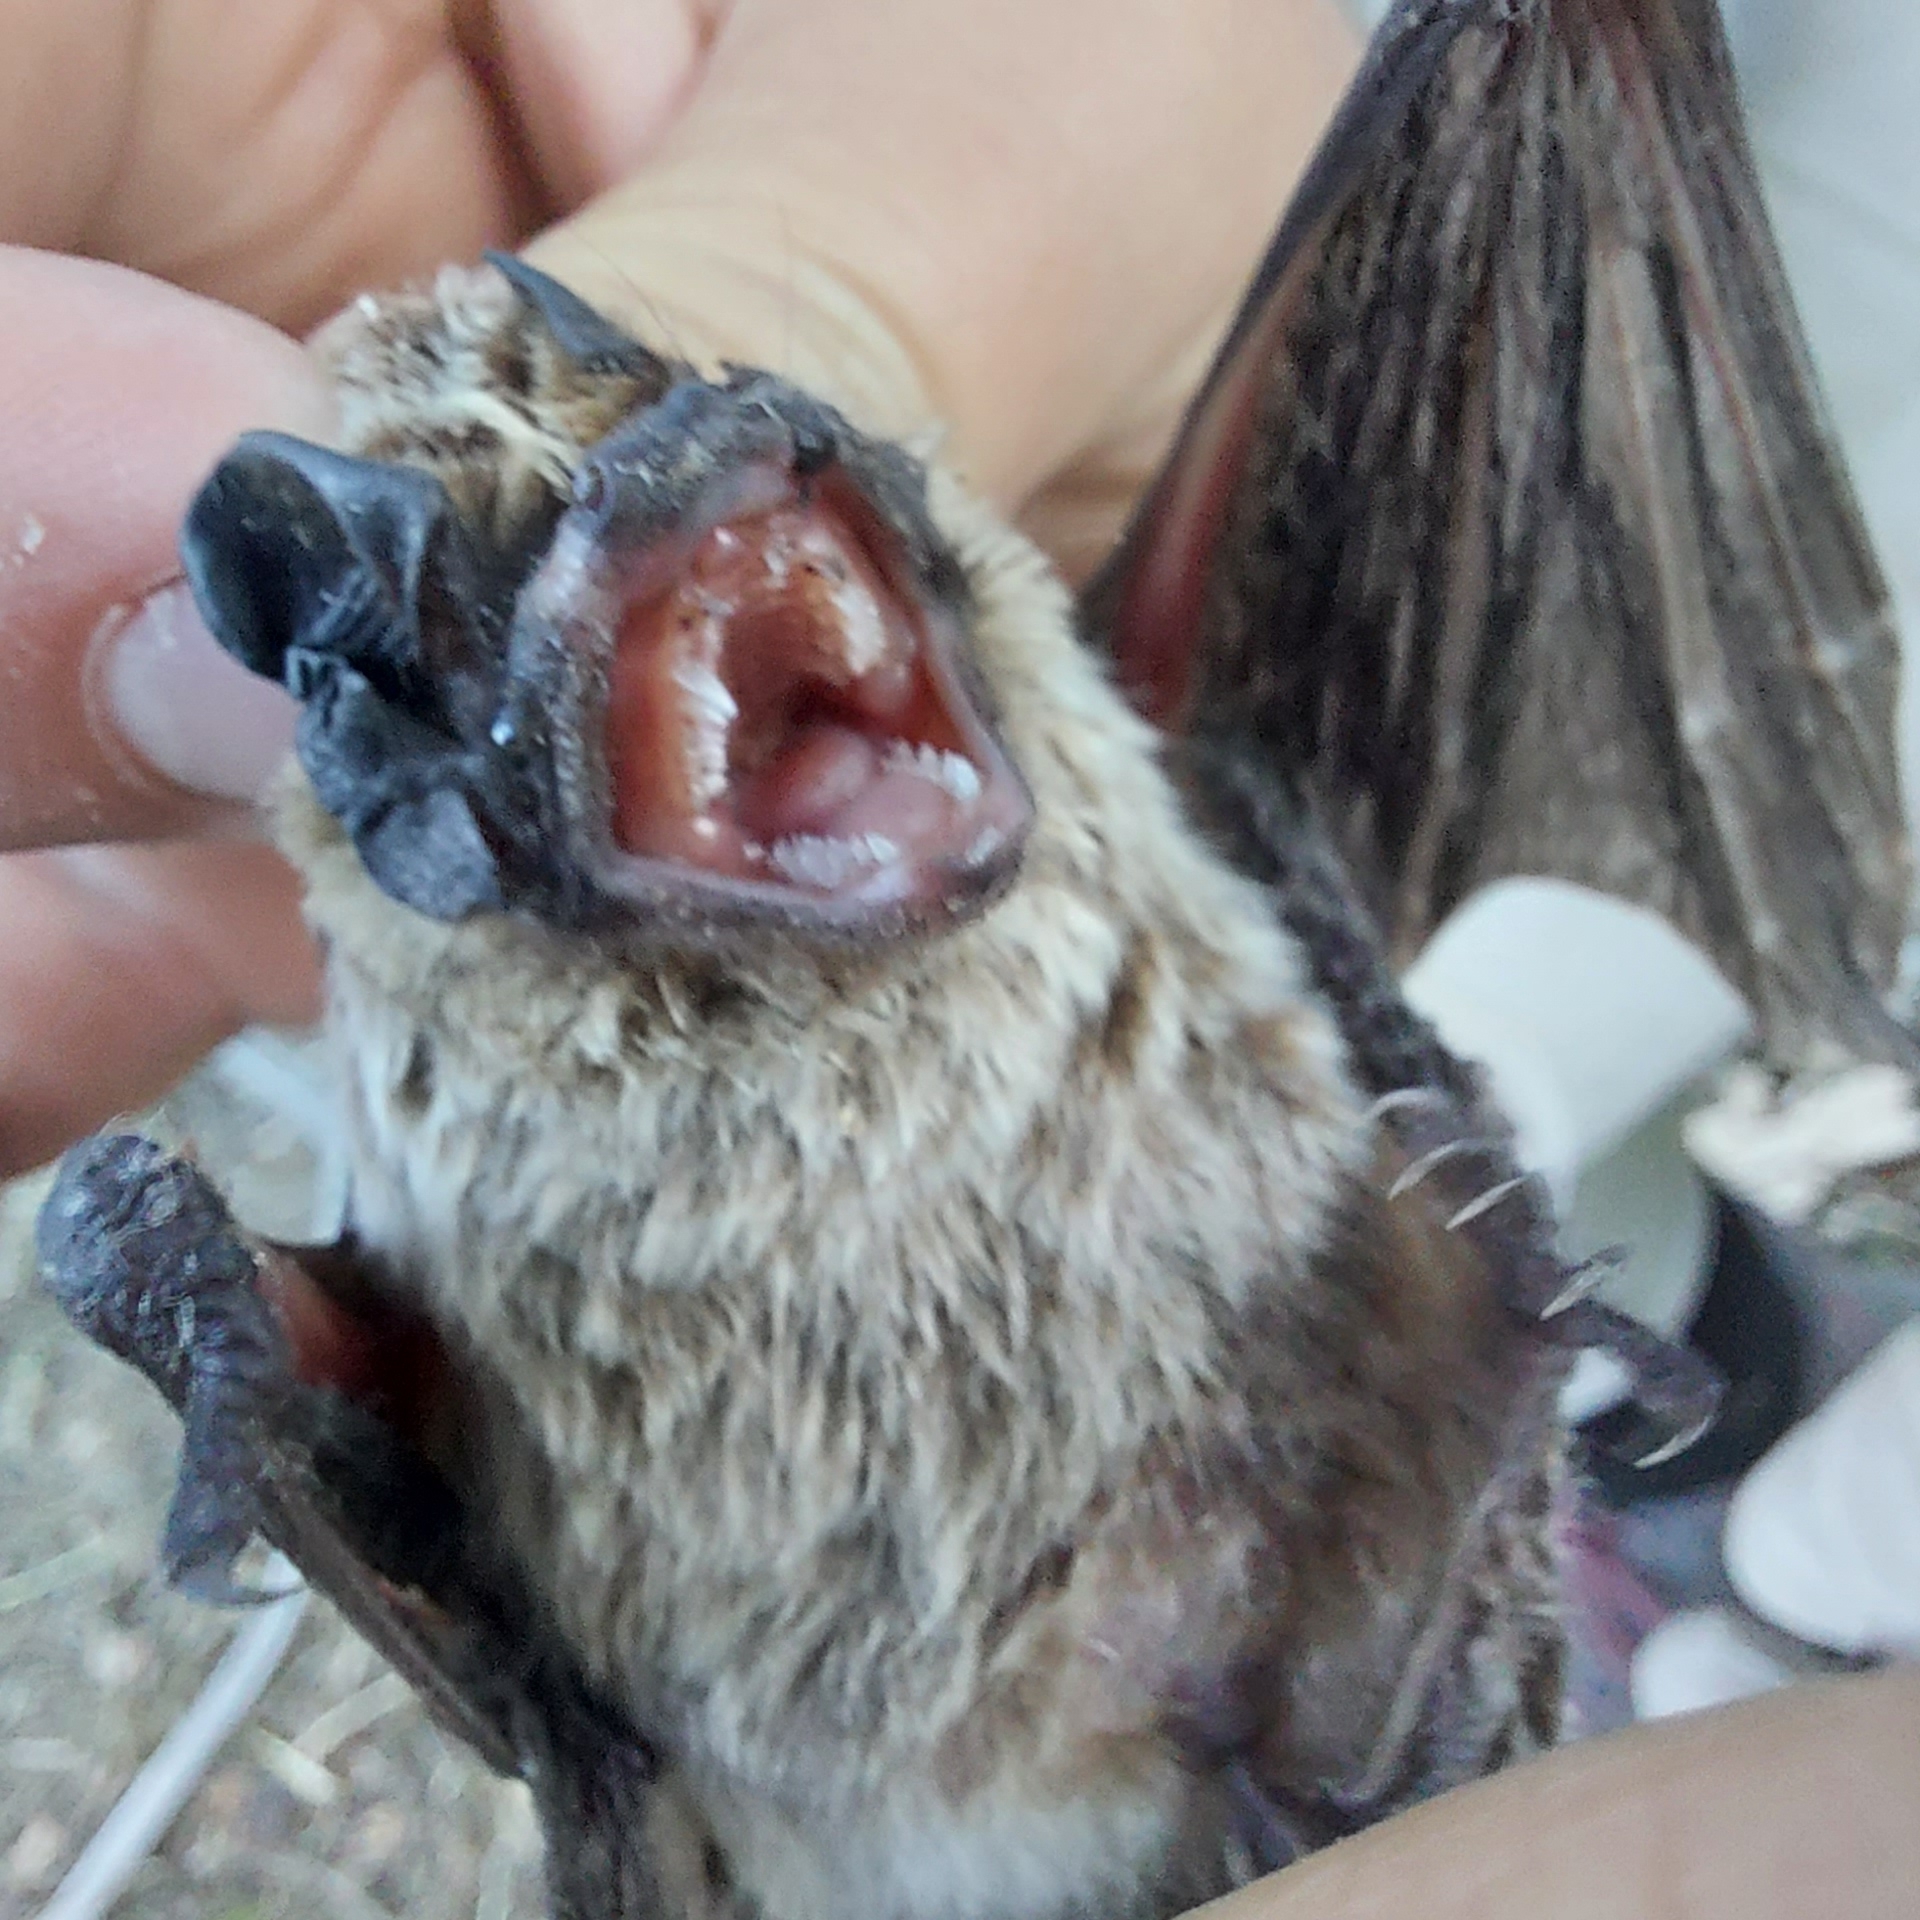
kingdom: Animalia
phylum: Chordata
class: Mammalia
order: Chiroptera
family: Vespertilionidae
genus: Vespertilio
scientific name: Vespertilio murinus
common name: Particolored bat
